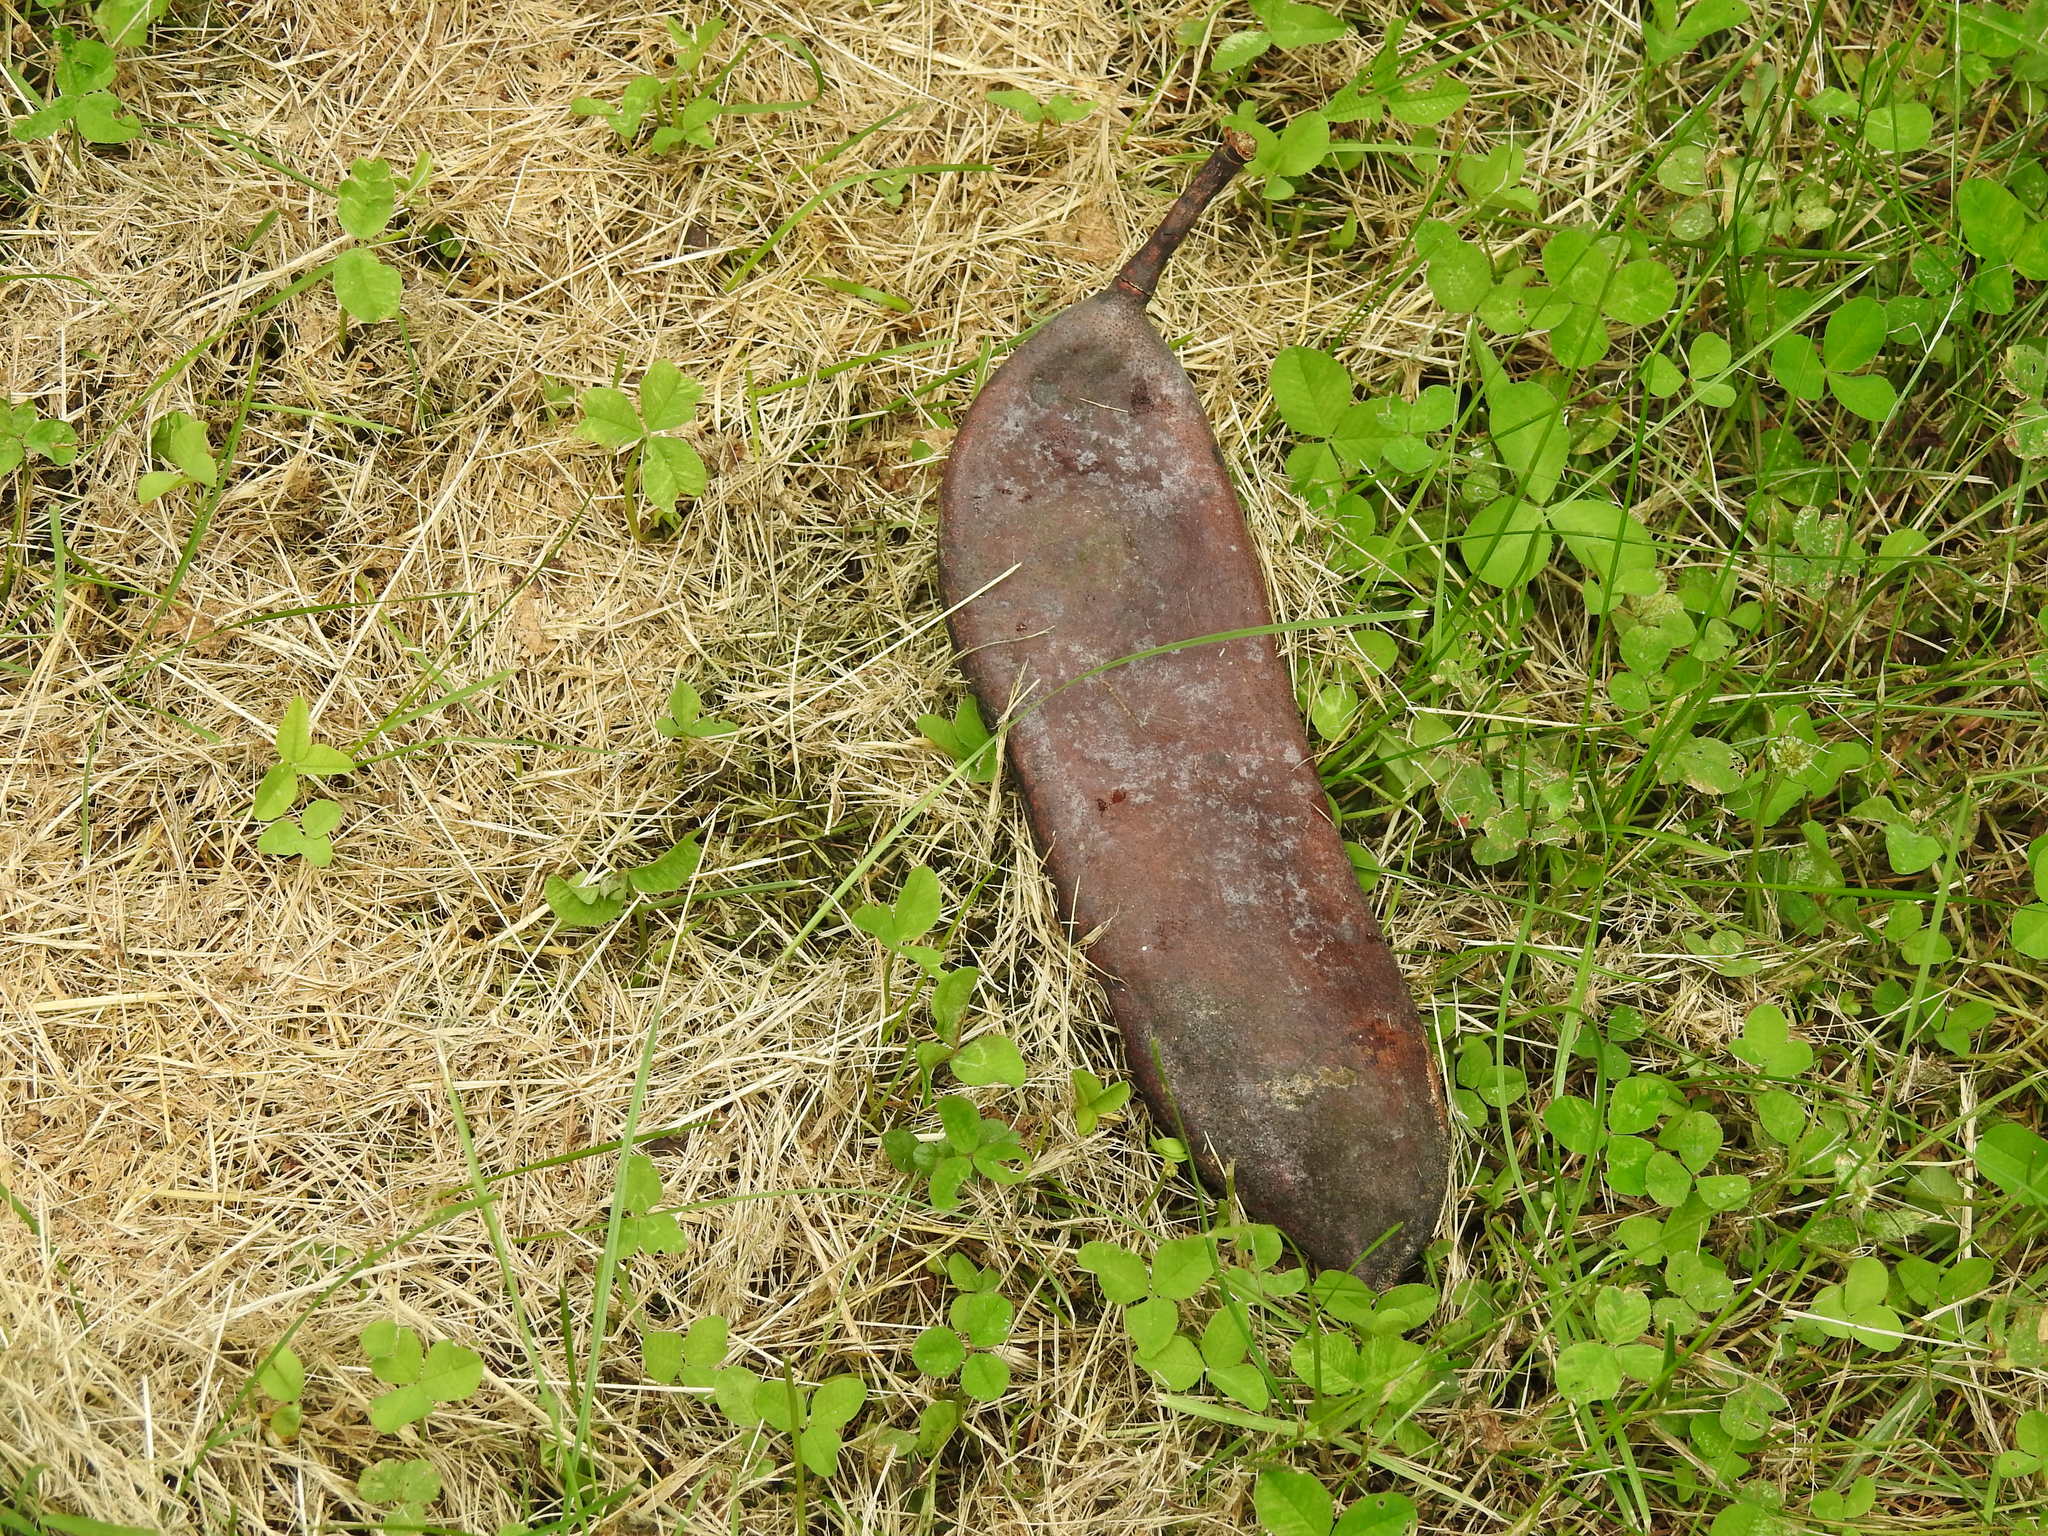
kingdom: Plantae
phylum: Tracheophyta
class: Magnoliopsida
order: Fabales
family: Fabaceae
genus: Gymnocladus
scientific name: Gymnocladus dioicus
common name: Kentucky coffee-tree
